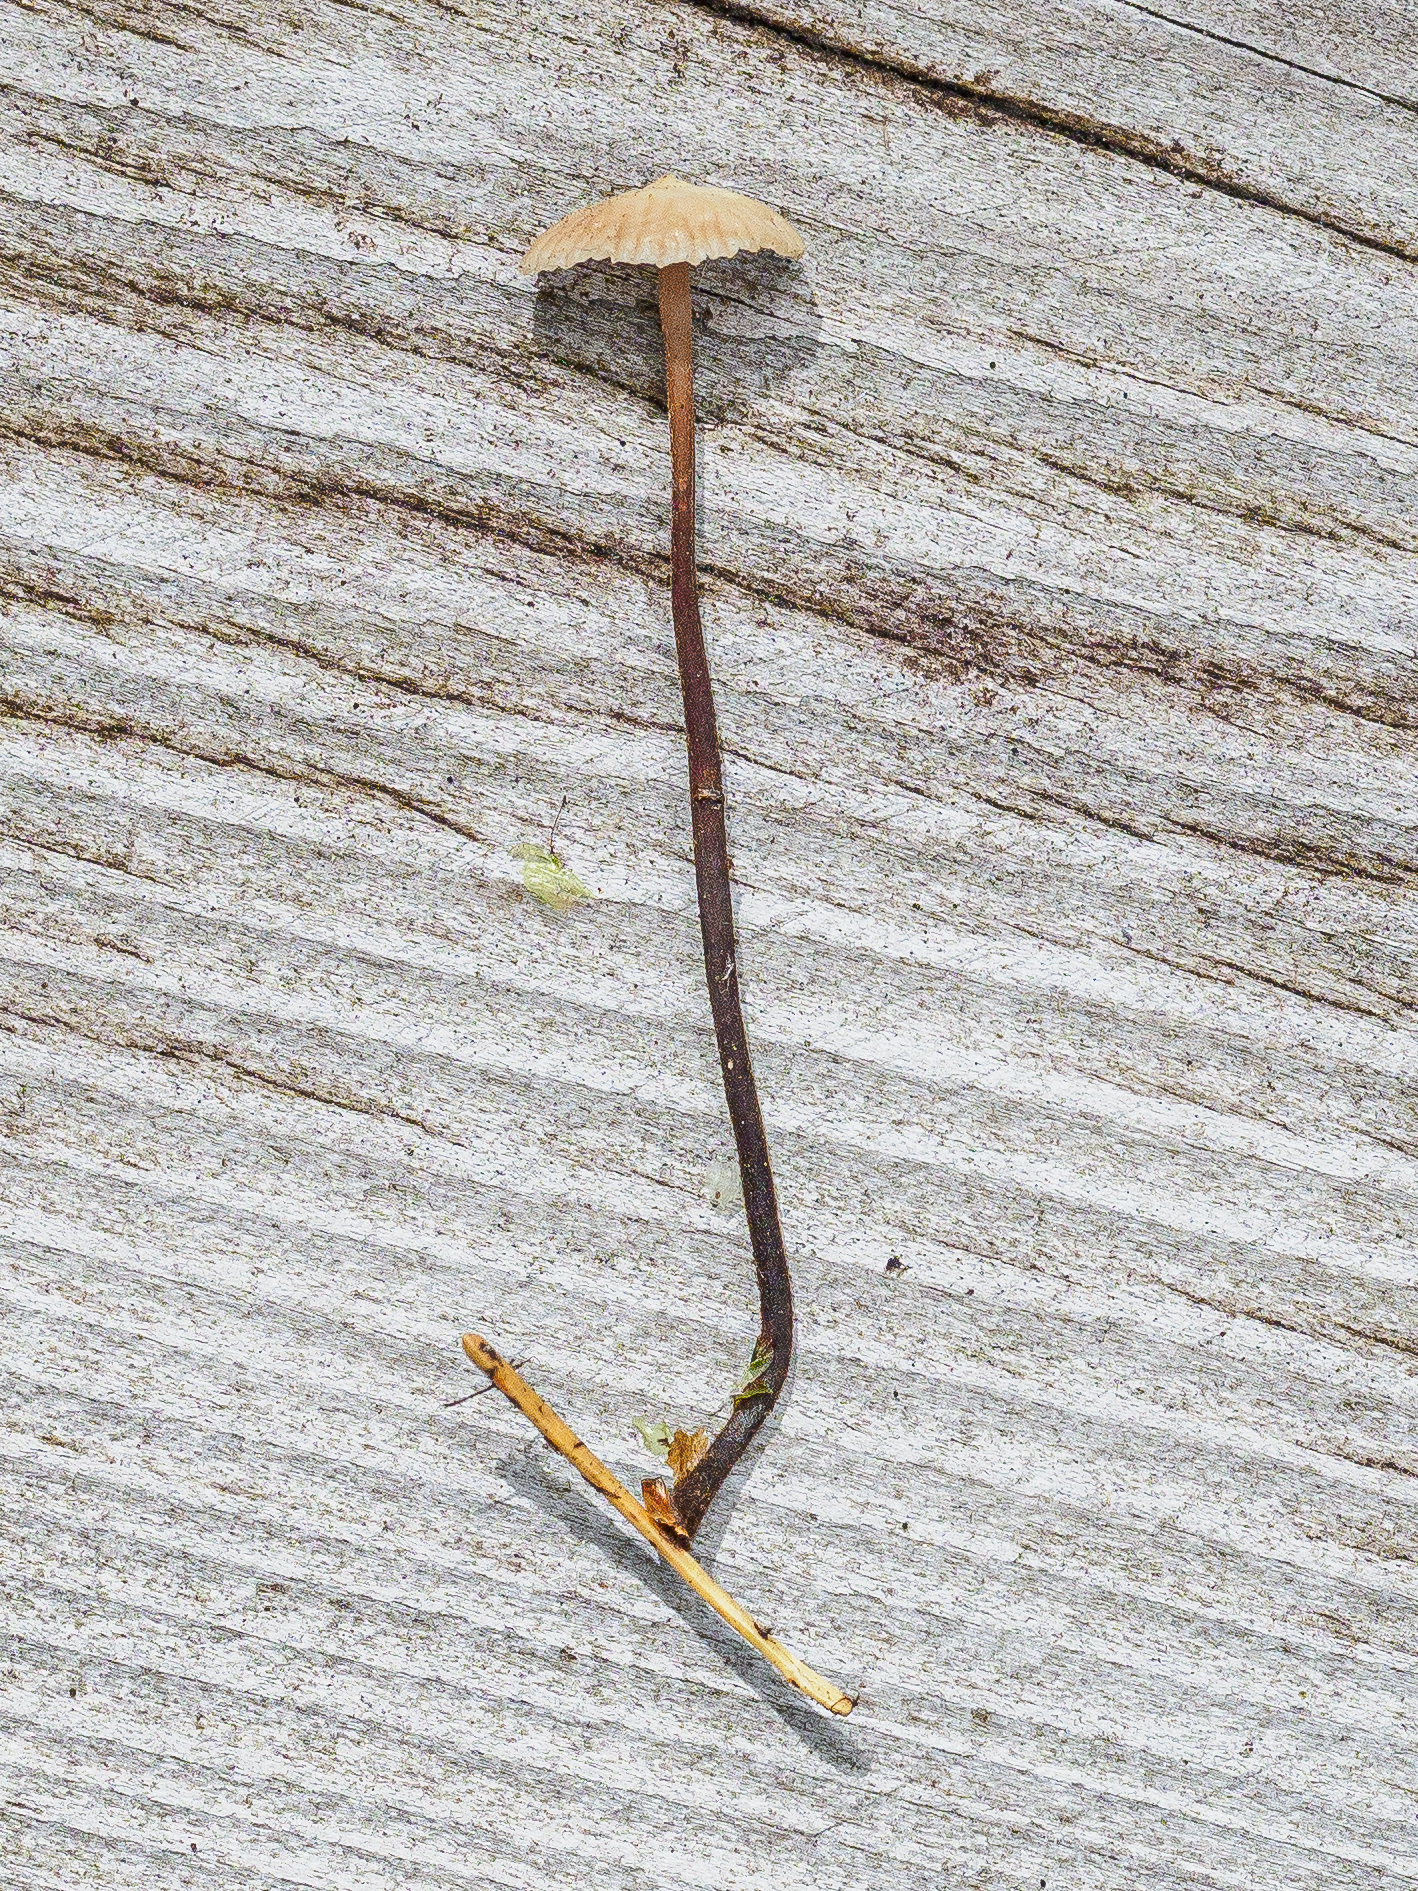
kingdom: Fungi
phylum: Basidiomycota
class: Agaricomycetes
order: Agaricales
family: Omphalotaceae
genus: Paragymnopus
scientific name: Paragymnopus perforans
